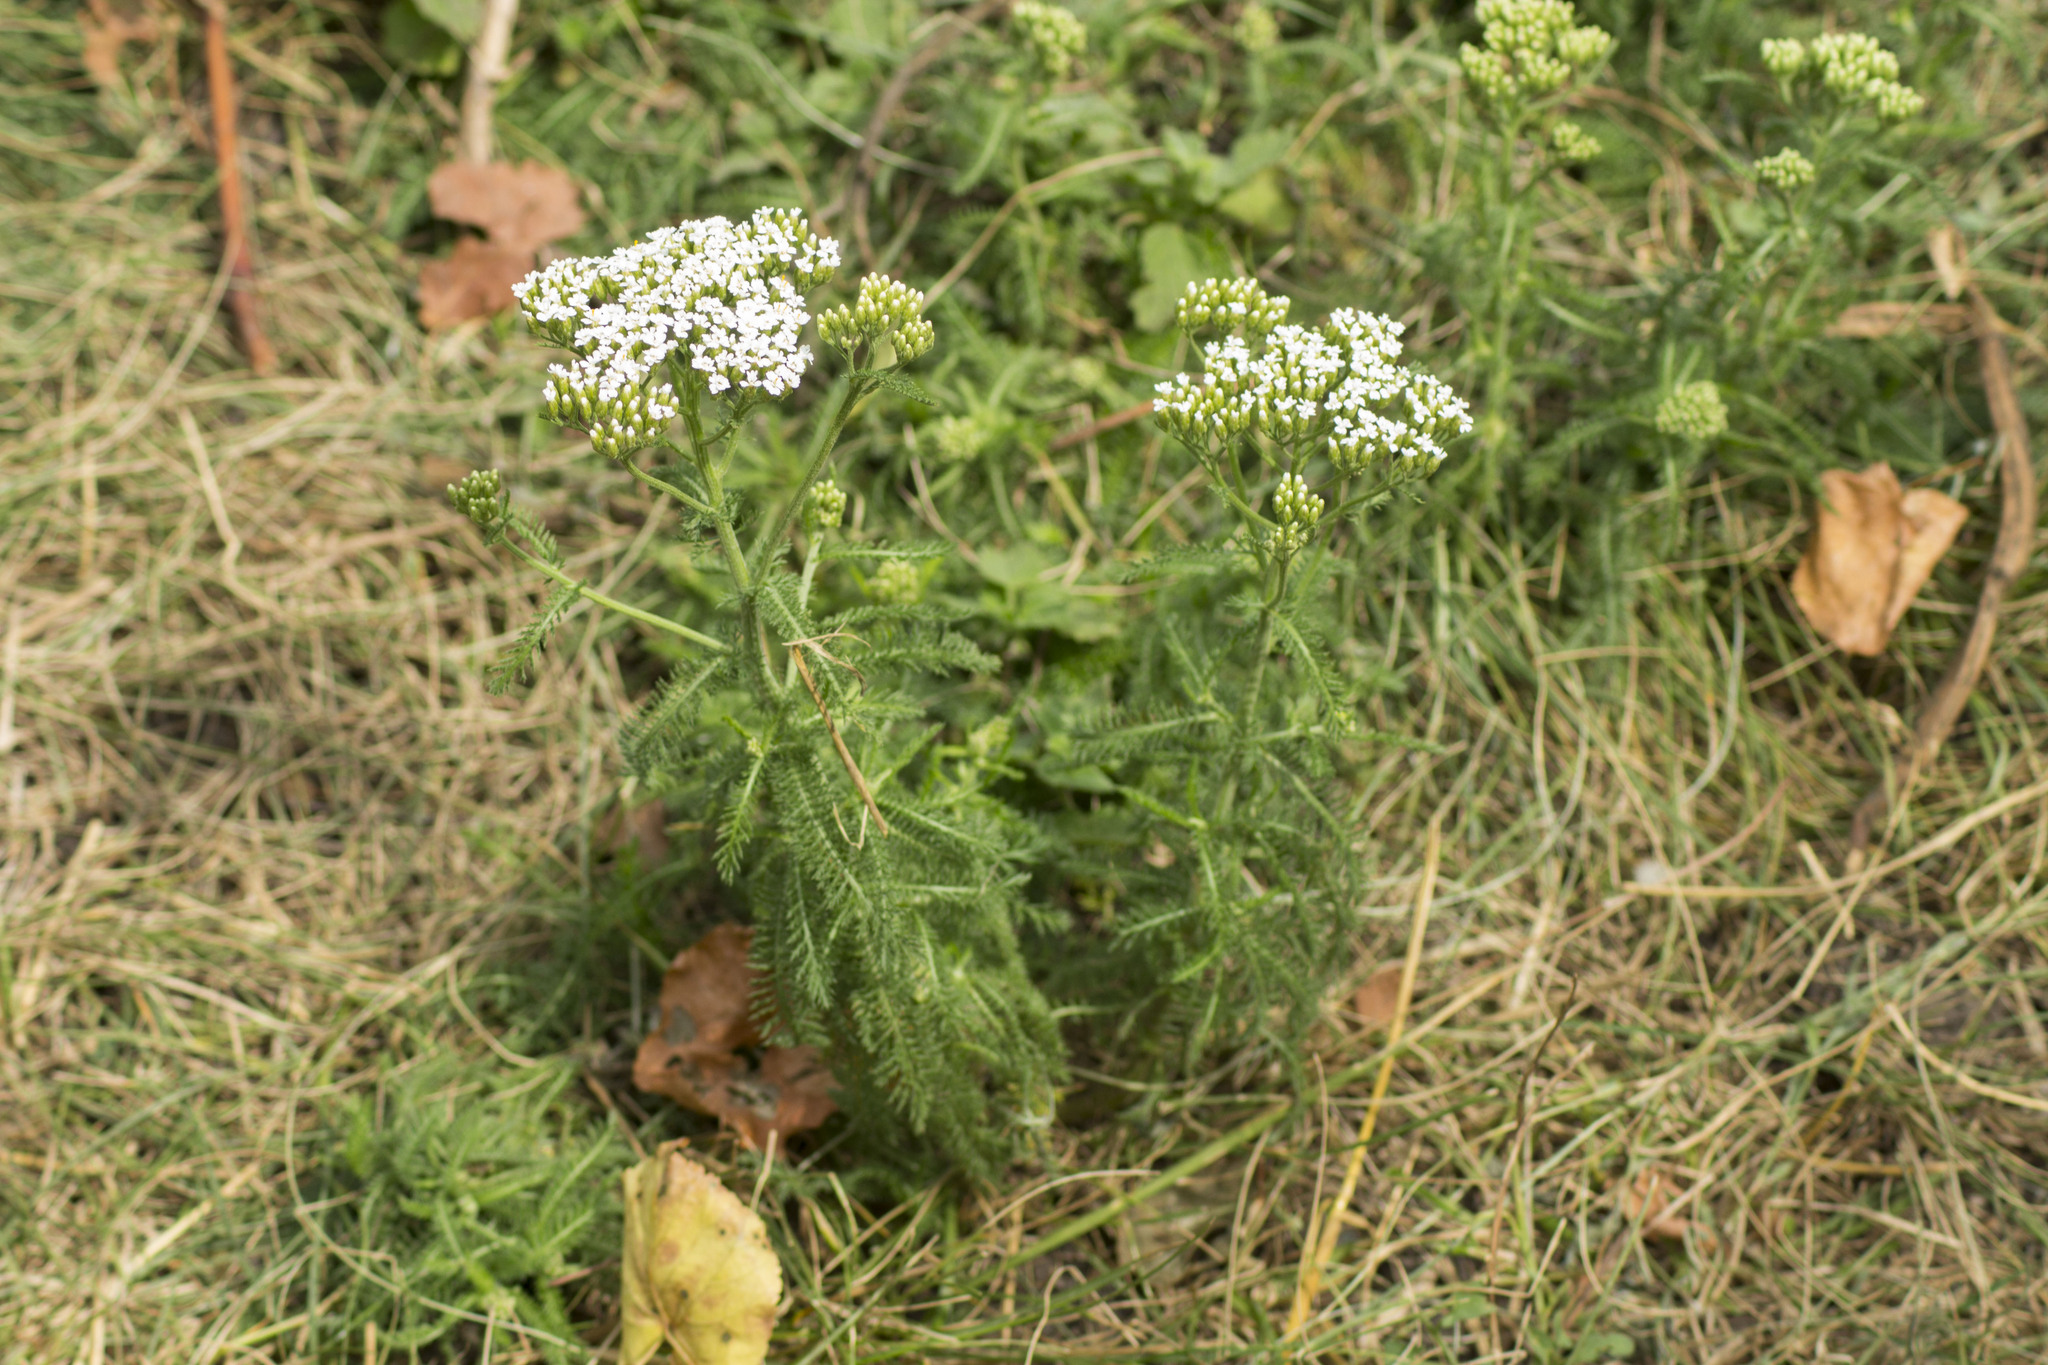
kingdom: Plantae
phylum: Tracheophyta
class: Magnoliopsida
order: Asterales
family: Asteraceae
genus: Achillea
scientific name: Achillea
